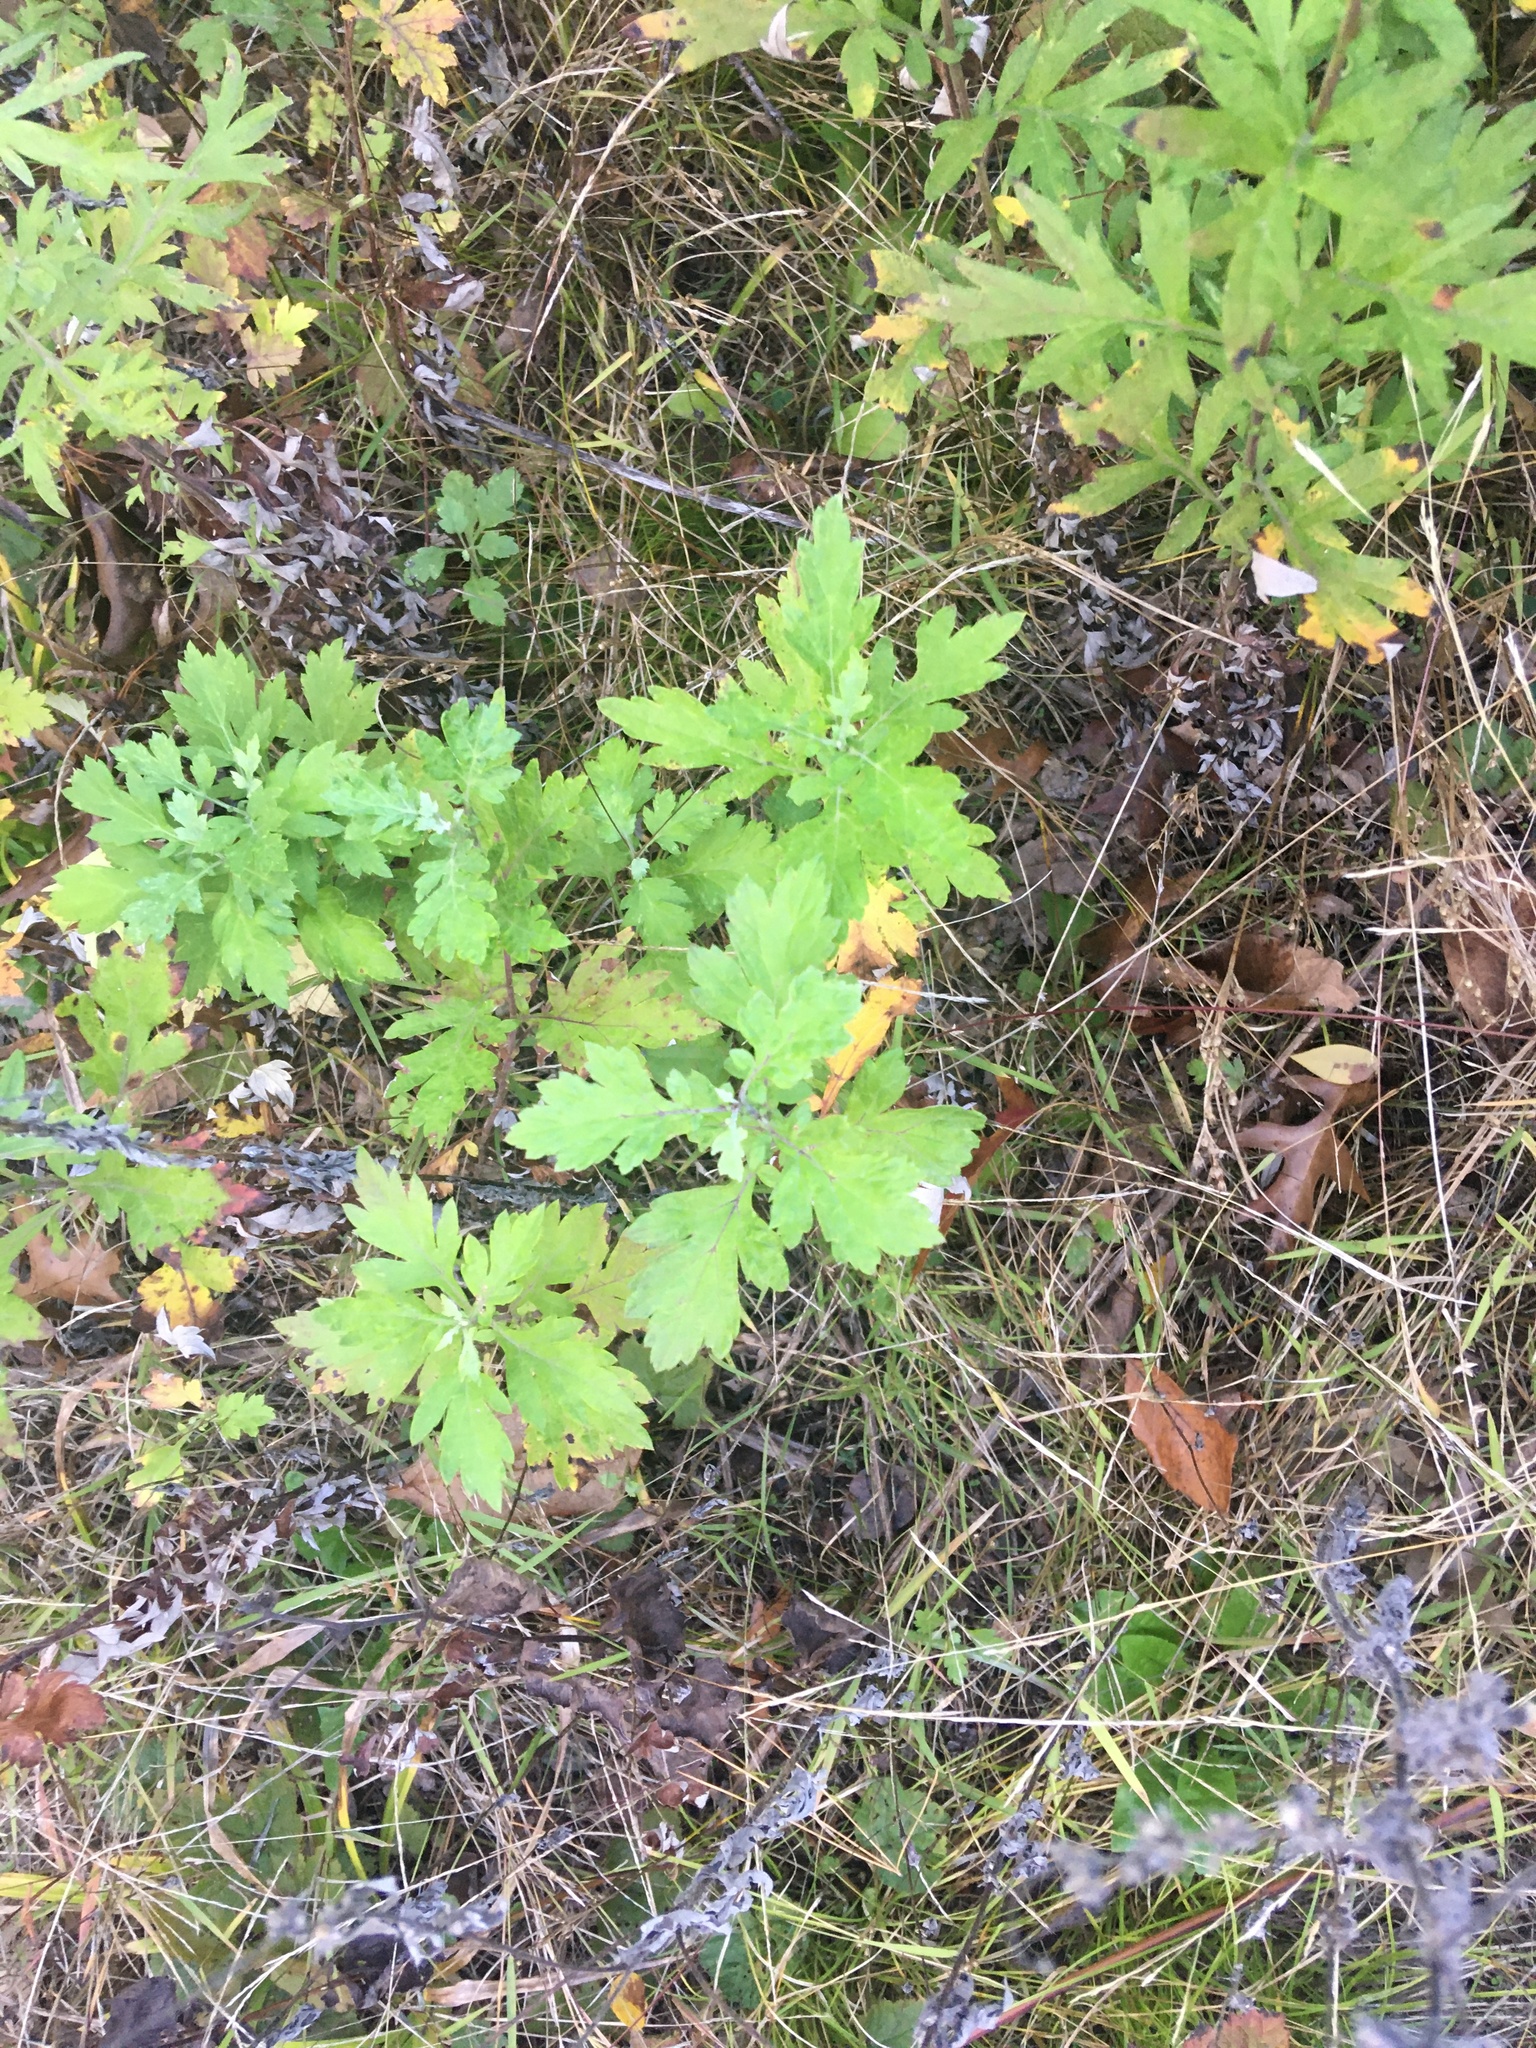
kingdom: Plantae
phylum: Tracheophyta
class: Magnoliopsida
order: Asterales
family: Asteraceae
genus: Artemisia
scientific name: Artemisia vulgaris
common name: Mugwort
